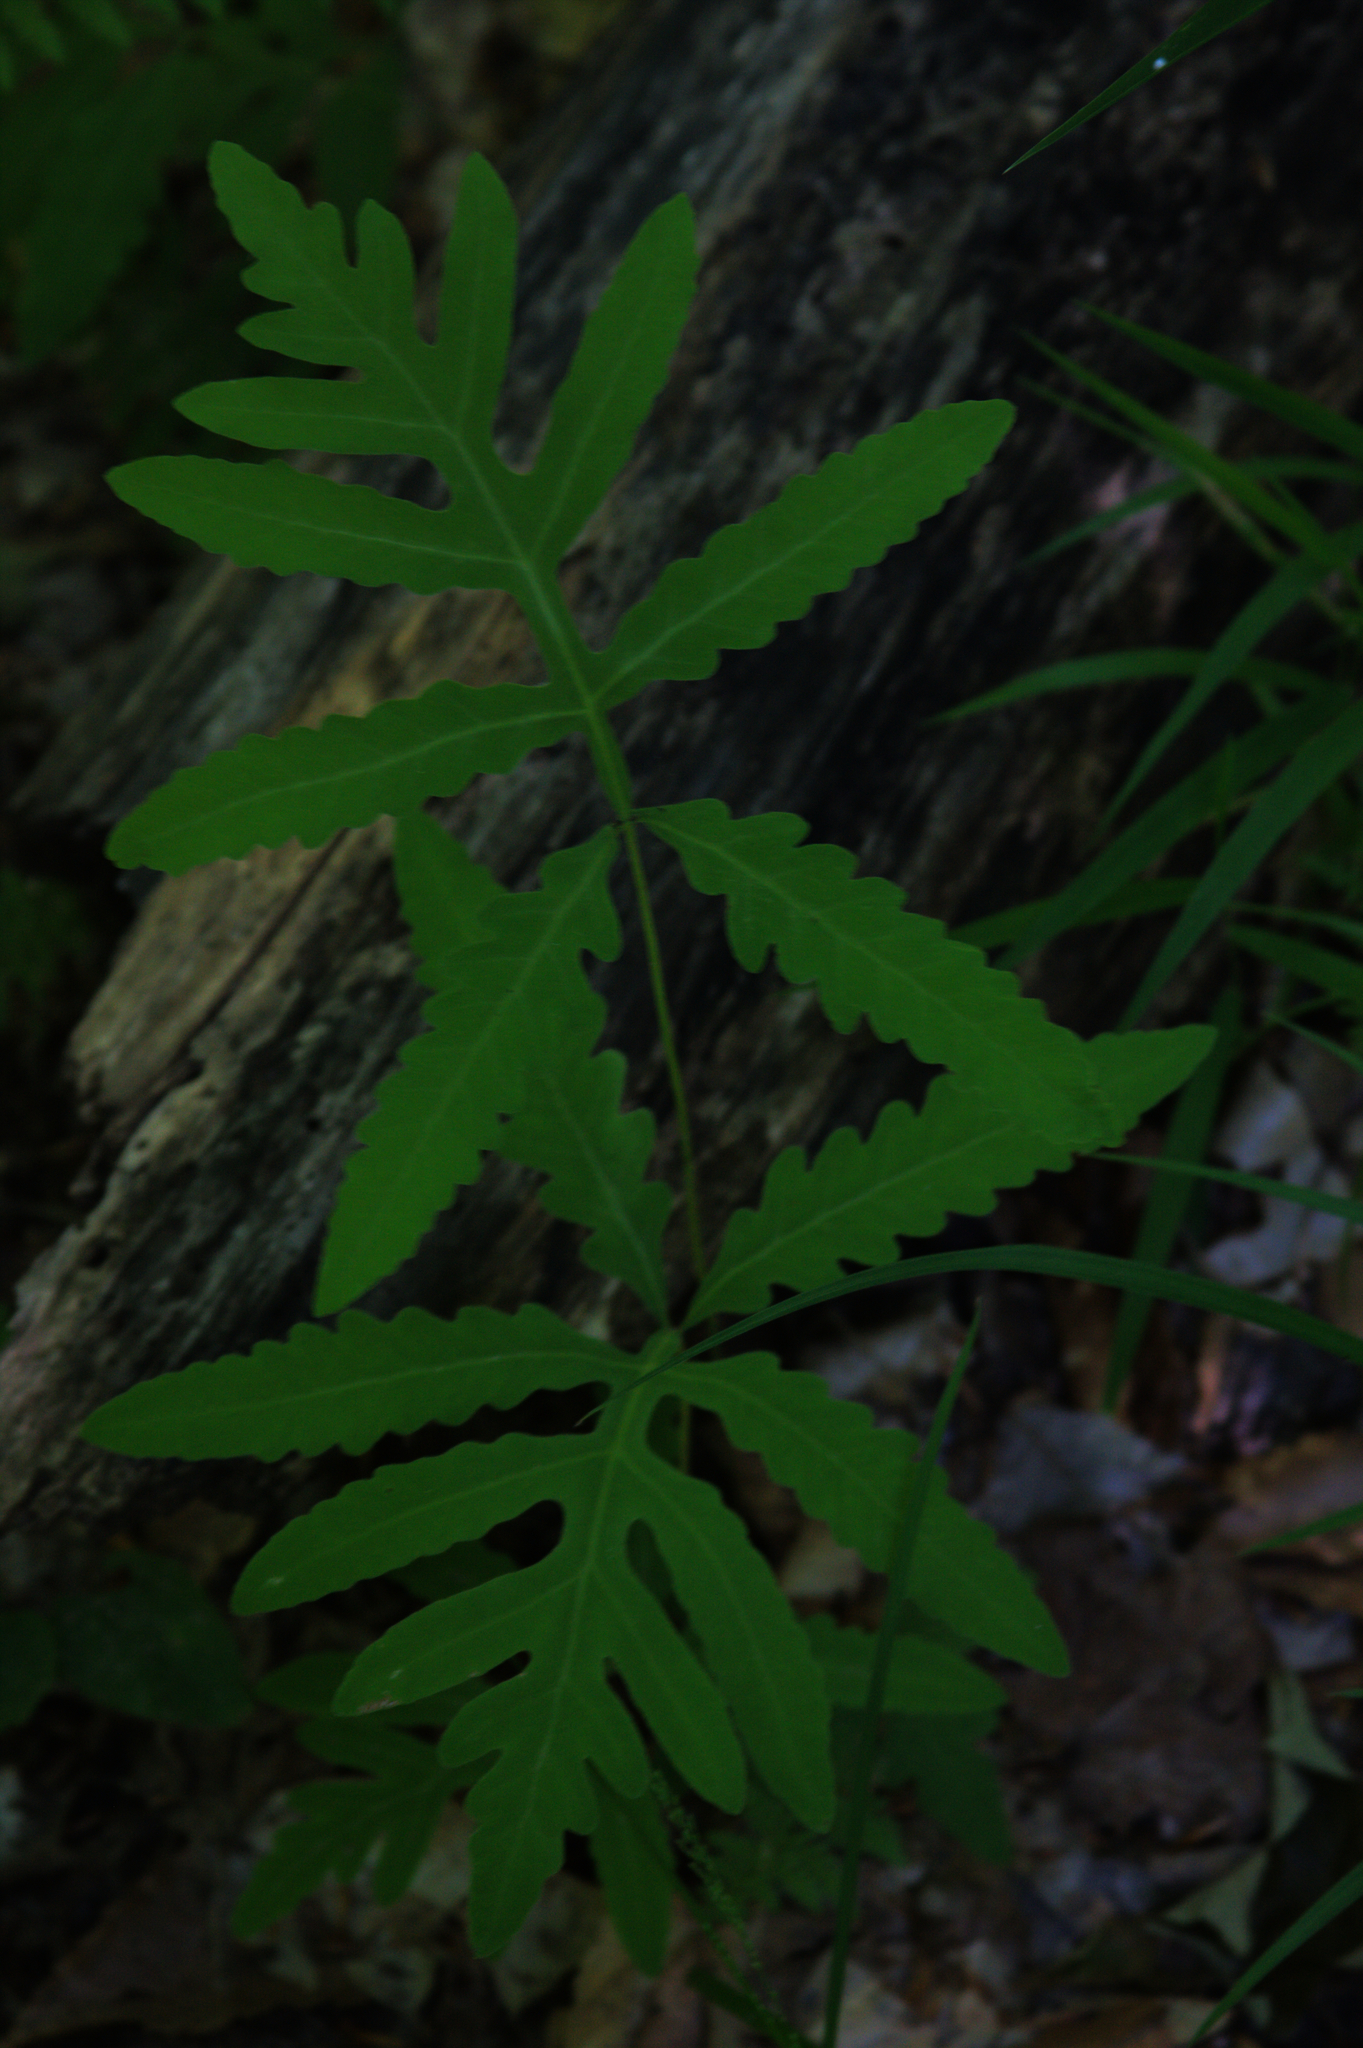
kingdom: Plantae
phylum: Tracheophyta
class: Polypodiopsida
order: Polypodiales
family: Onocleaceae
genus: Onoclea
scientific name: Onoclea sensibilis
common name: Sensitive fern
